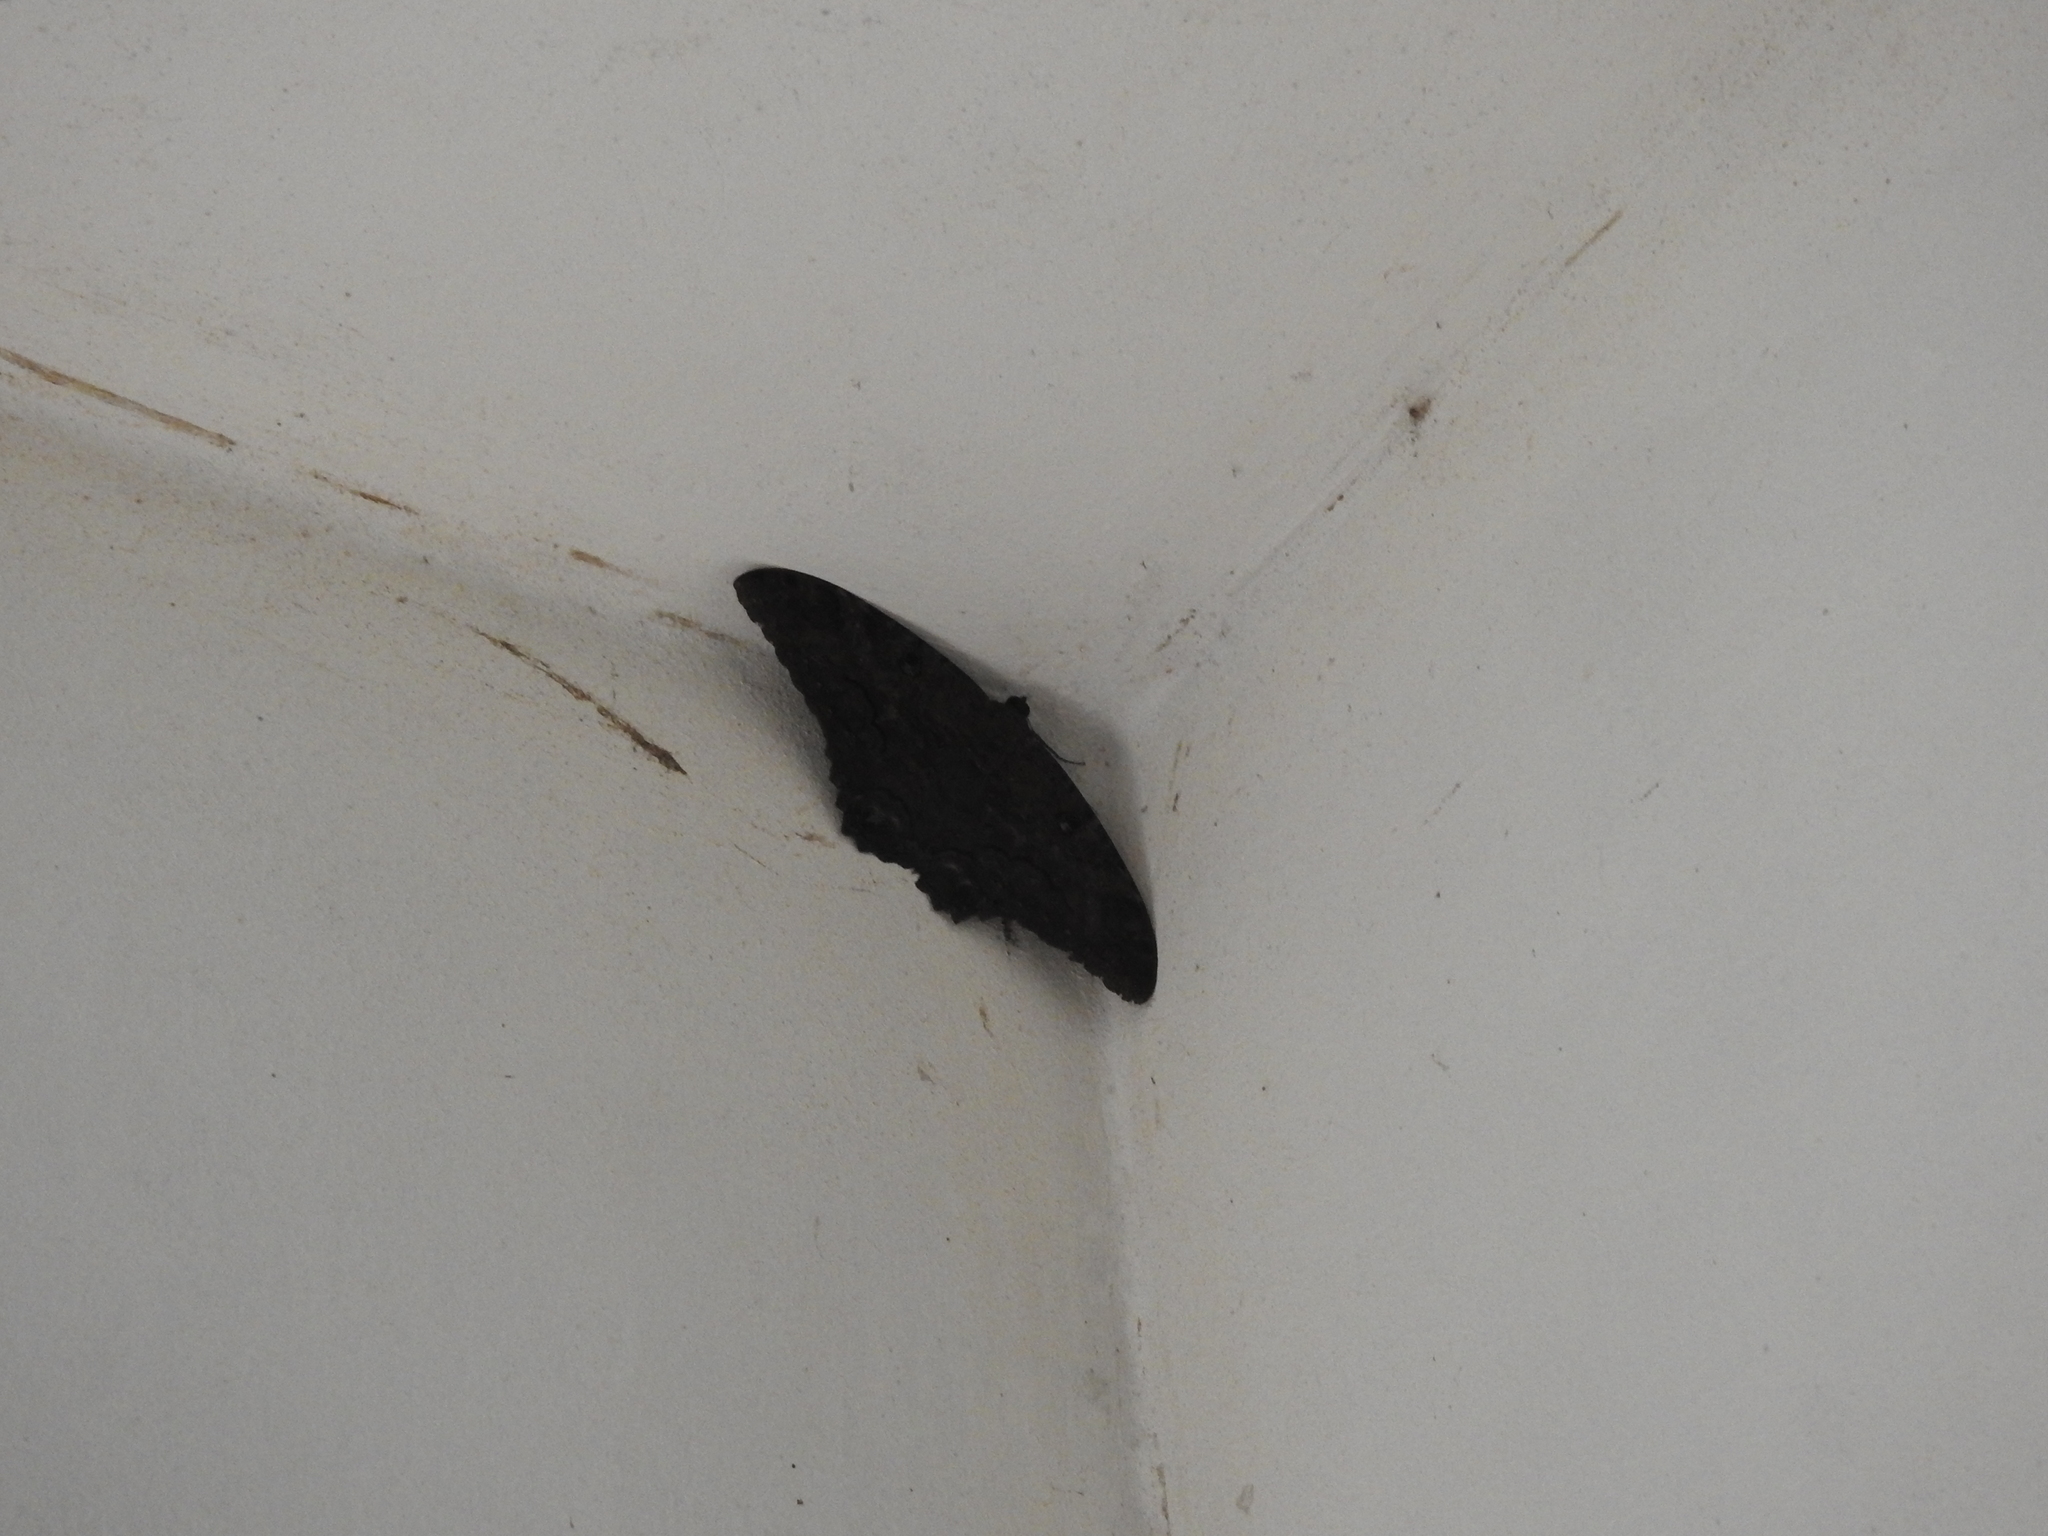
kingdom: Animalia
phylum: Arthropoda
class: Insecta
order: Lepidoptera
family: Erebidae
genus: Ascalapha
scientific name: Ascalapha odorata
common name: Black witch
